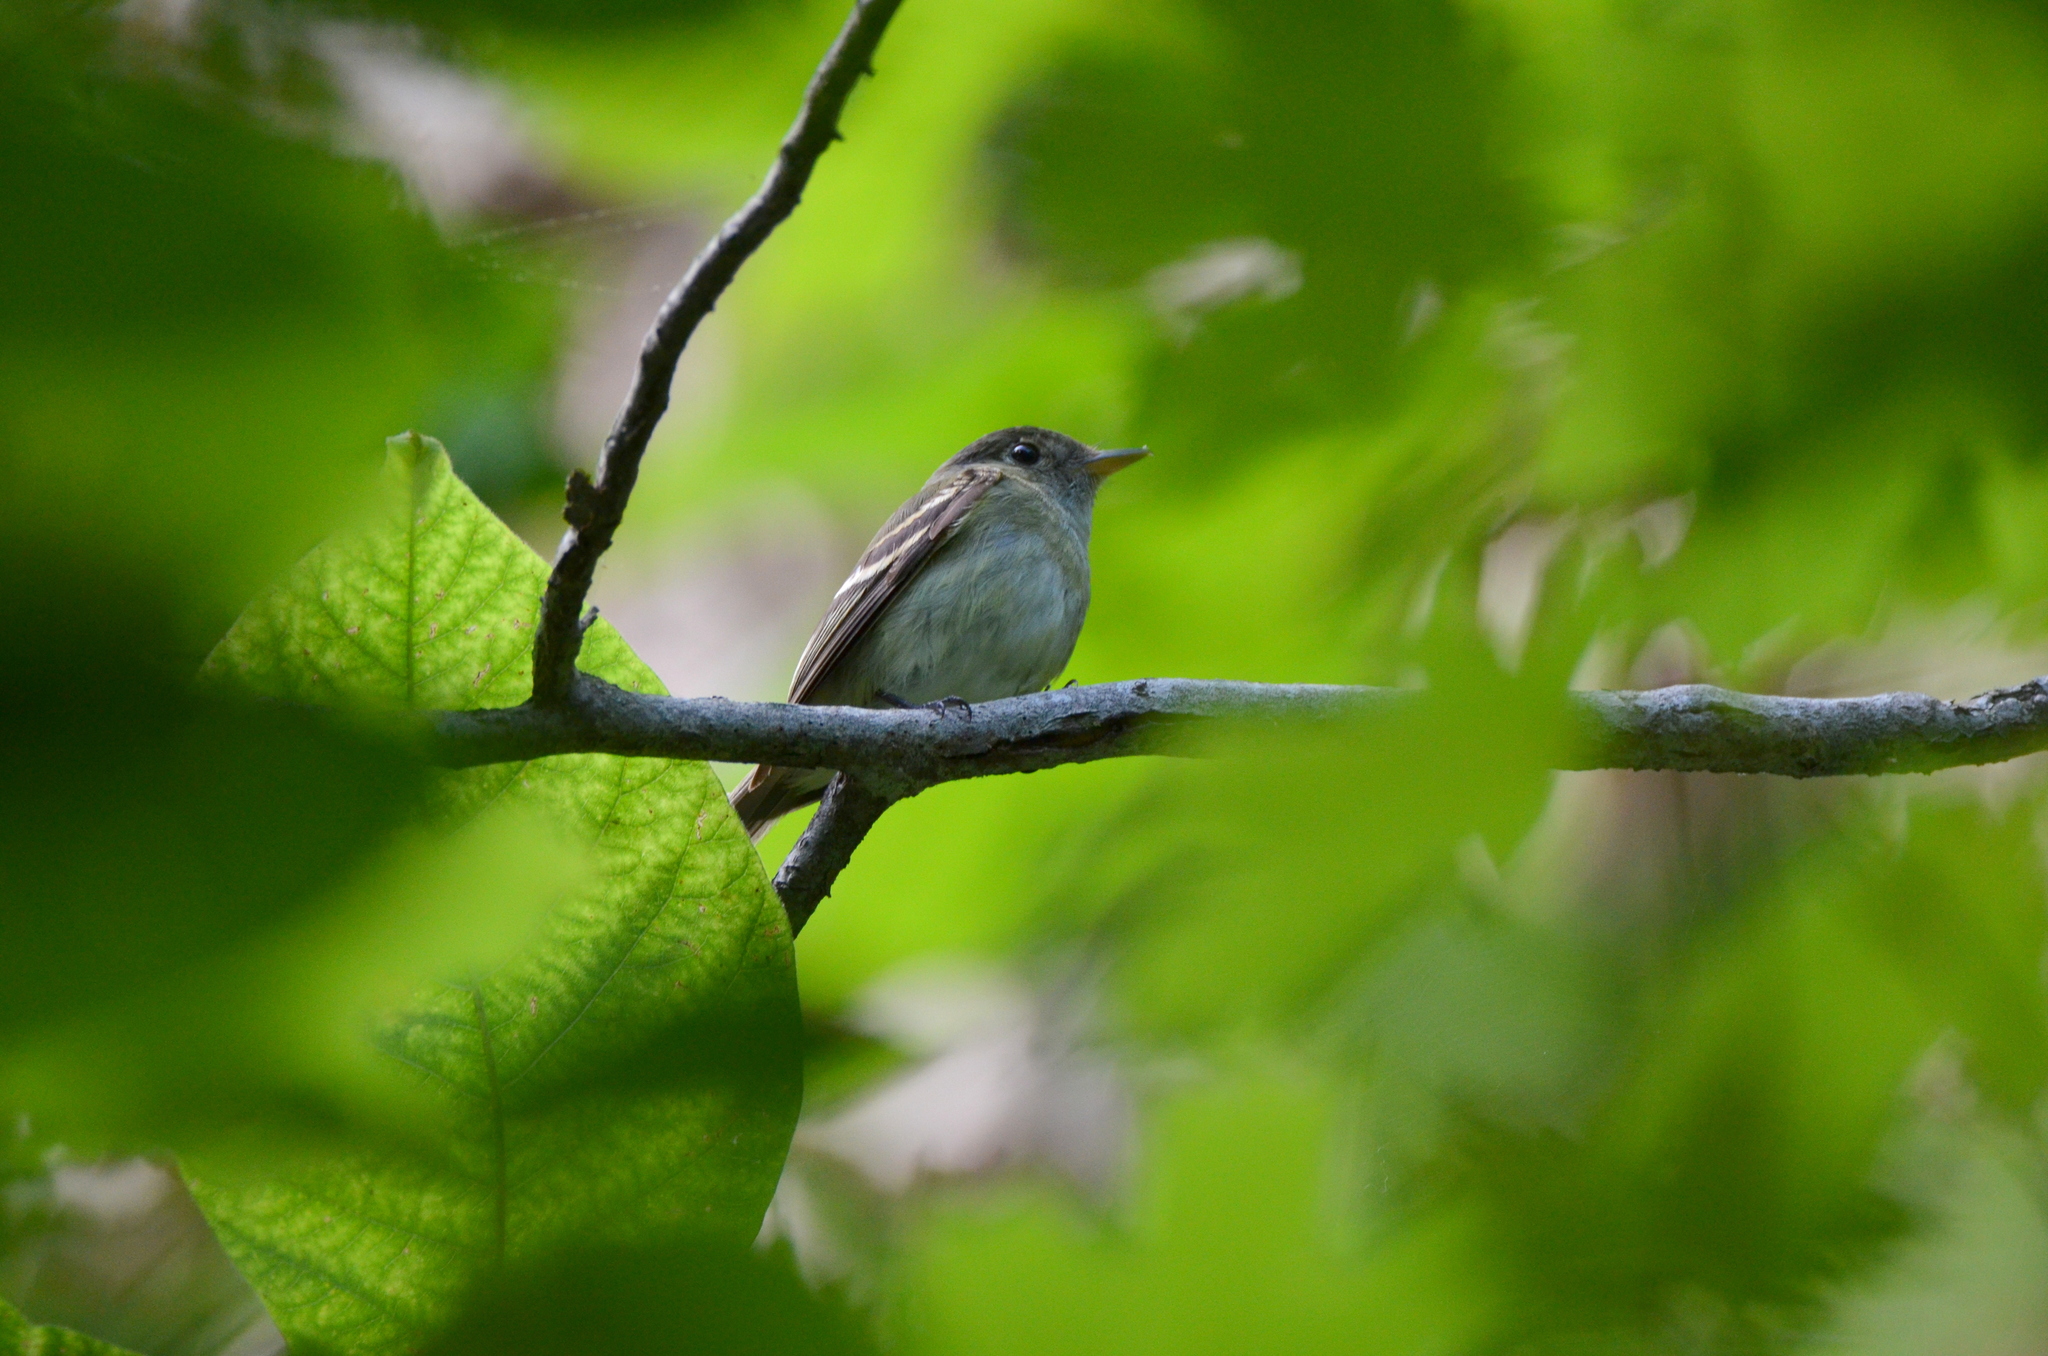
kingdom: Animalia
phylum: Chordata
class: Aves
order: Passeriformes
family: Tyrannidae
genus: Empidonax
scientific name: Empidonax virescens
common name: Acadian flycatcher
